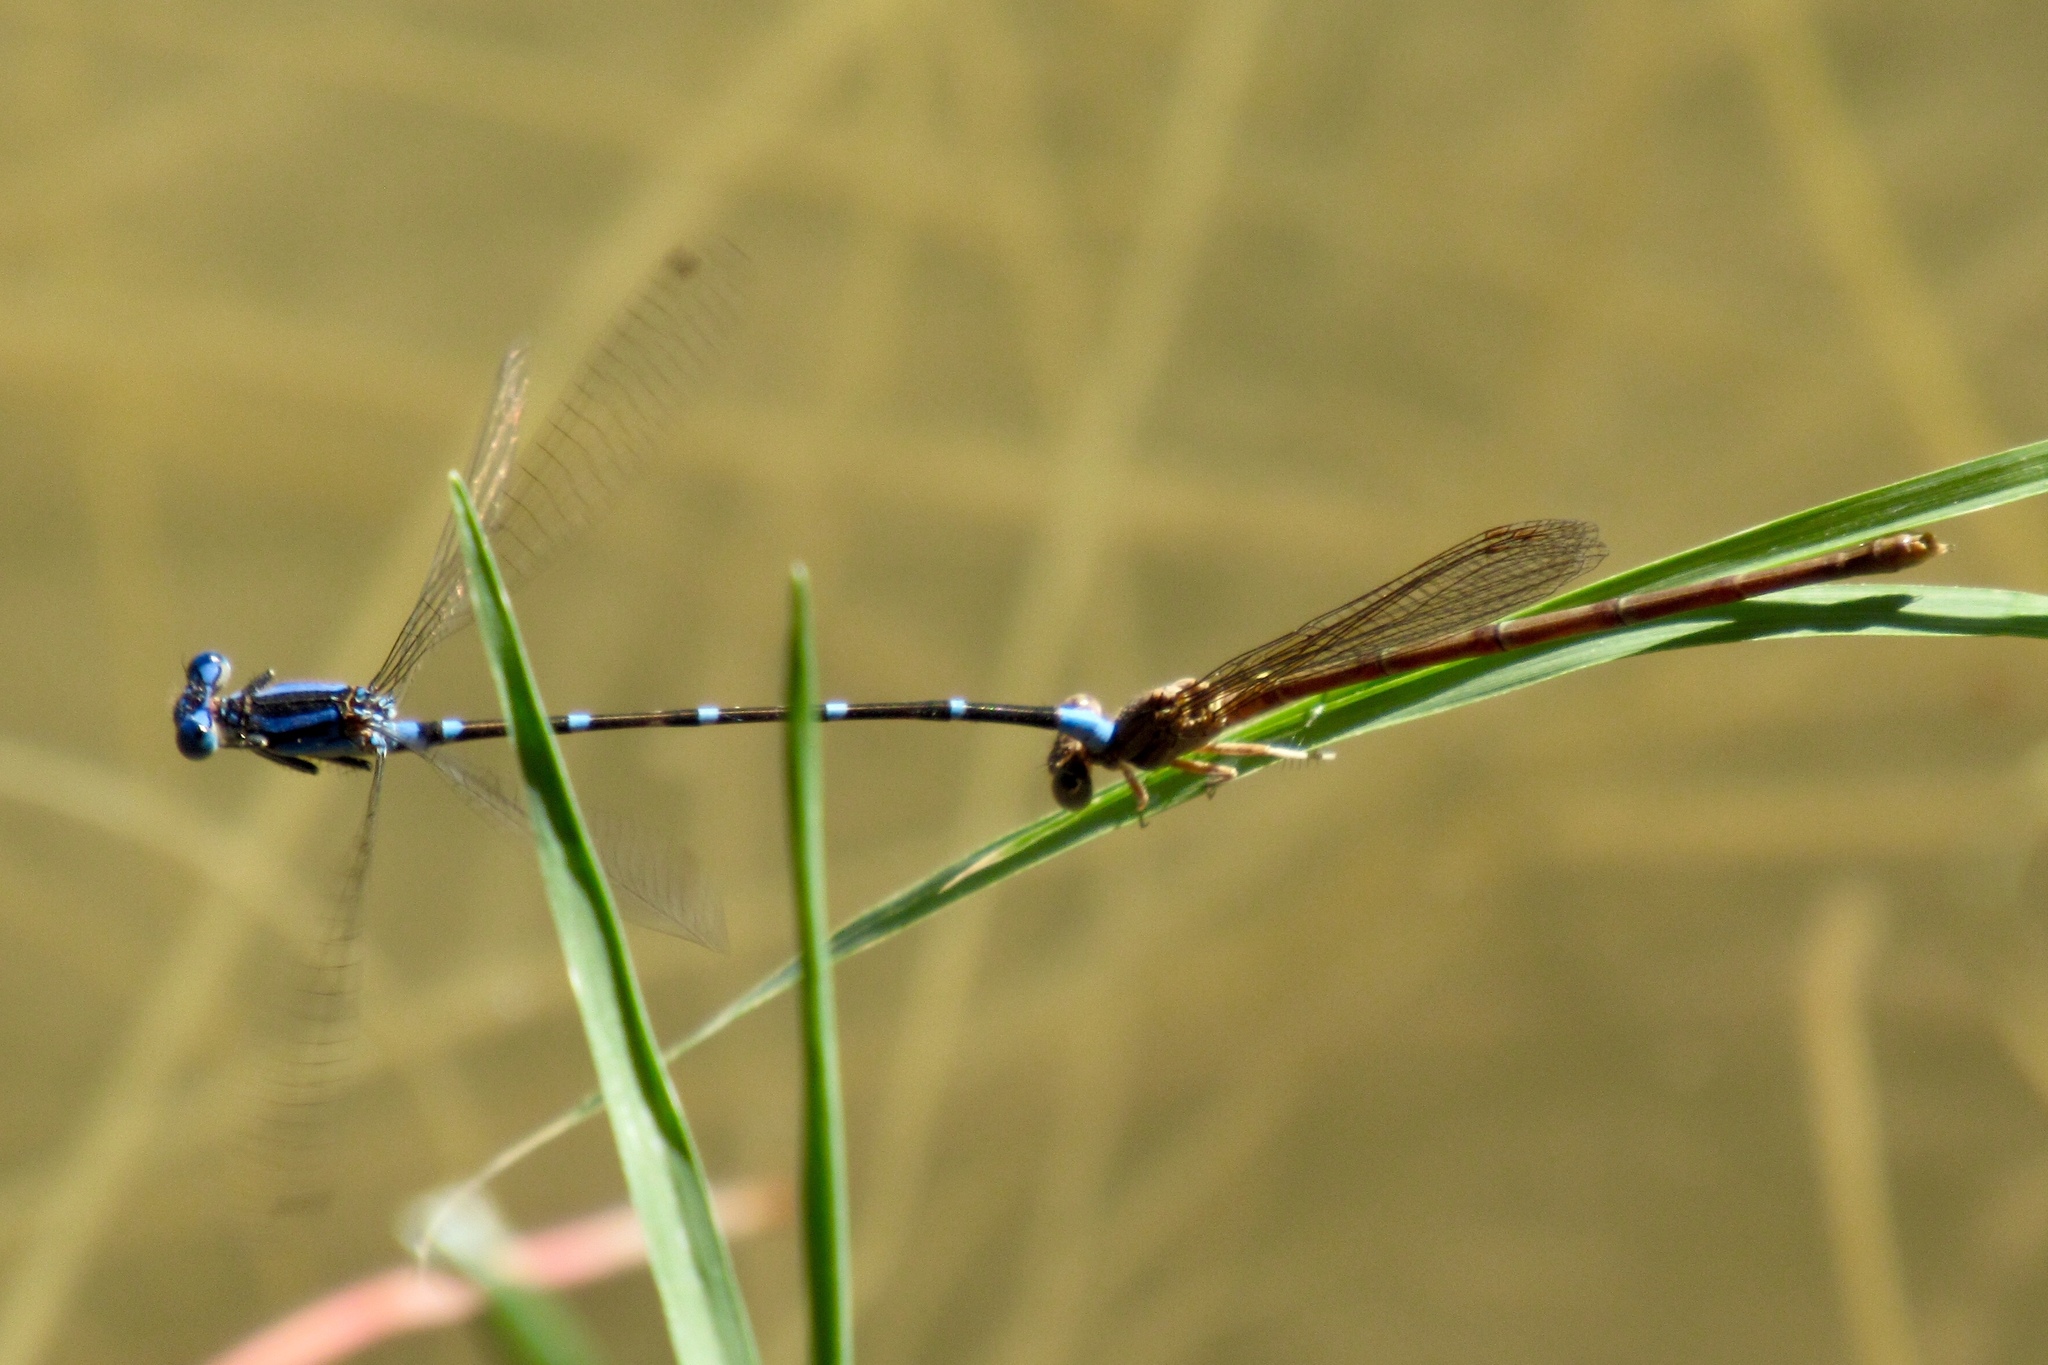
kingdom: Animalia
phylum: Arthropoda
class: Insecta
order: Odonata
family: Coenagrionidae
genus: Argia
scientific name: Argia sedula
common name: Blue-ringed dancer
